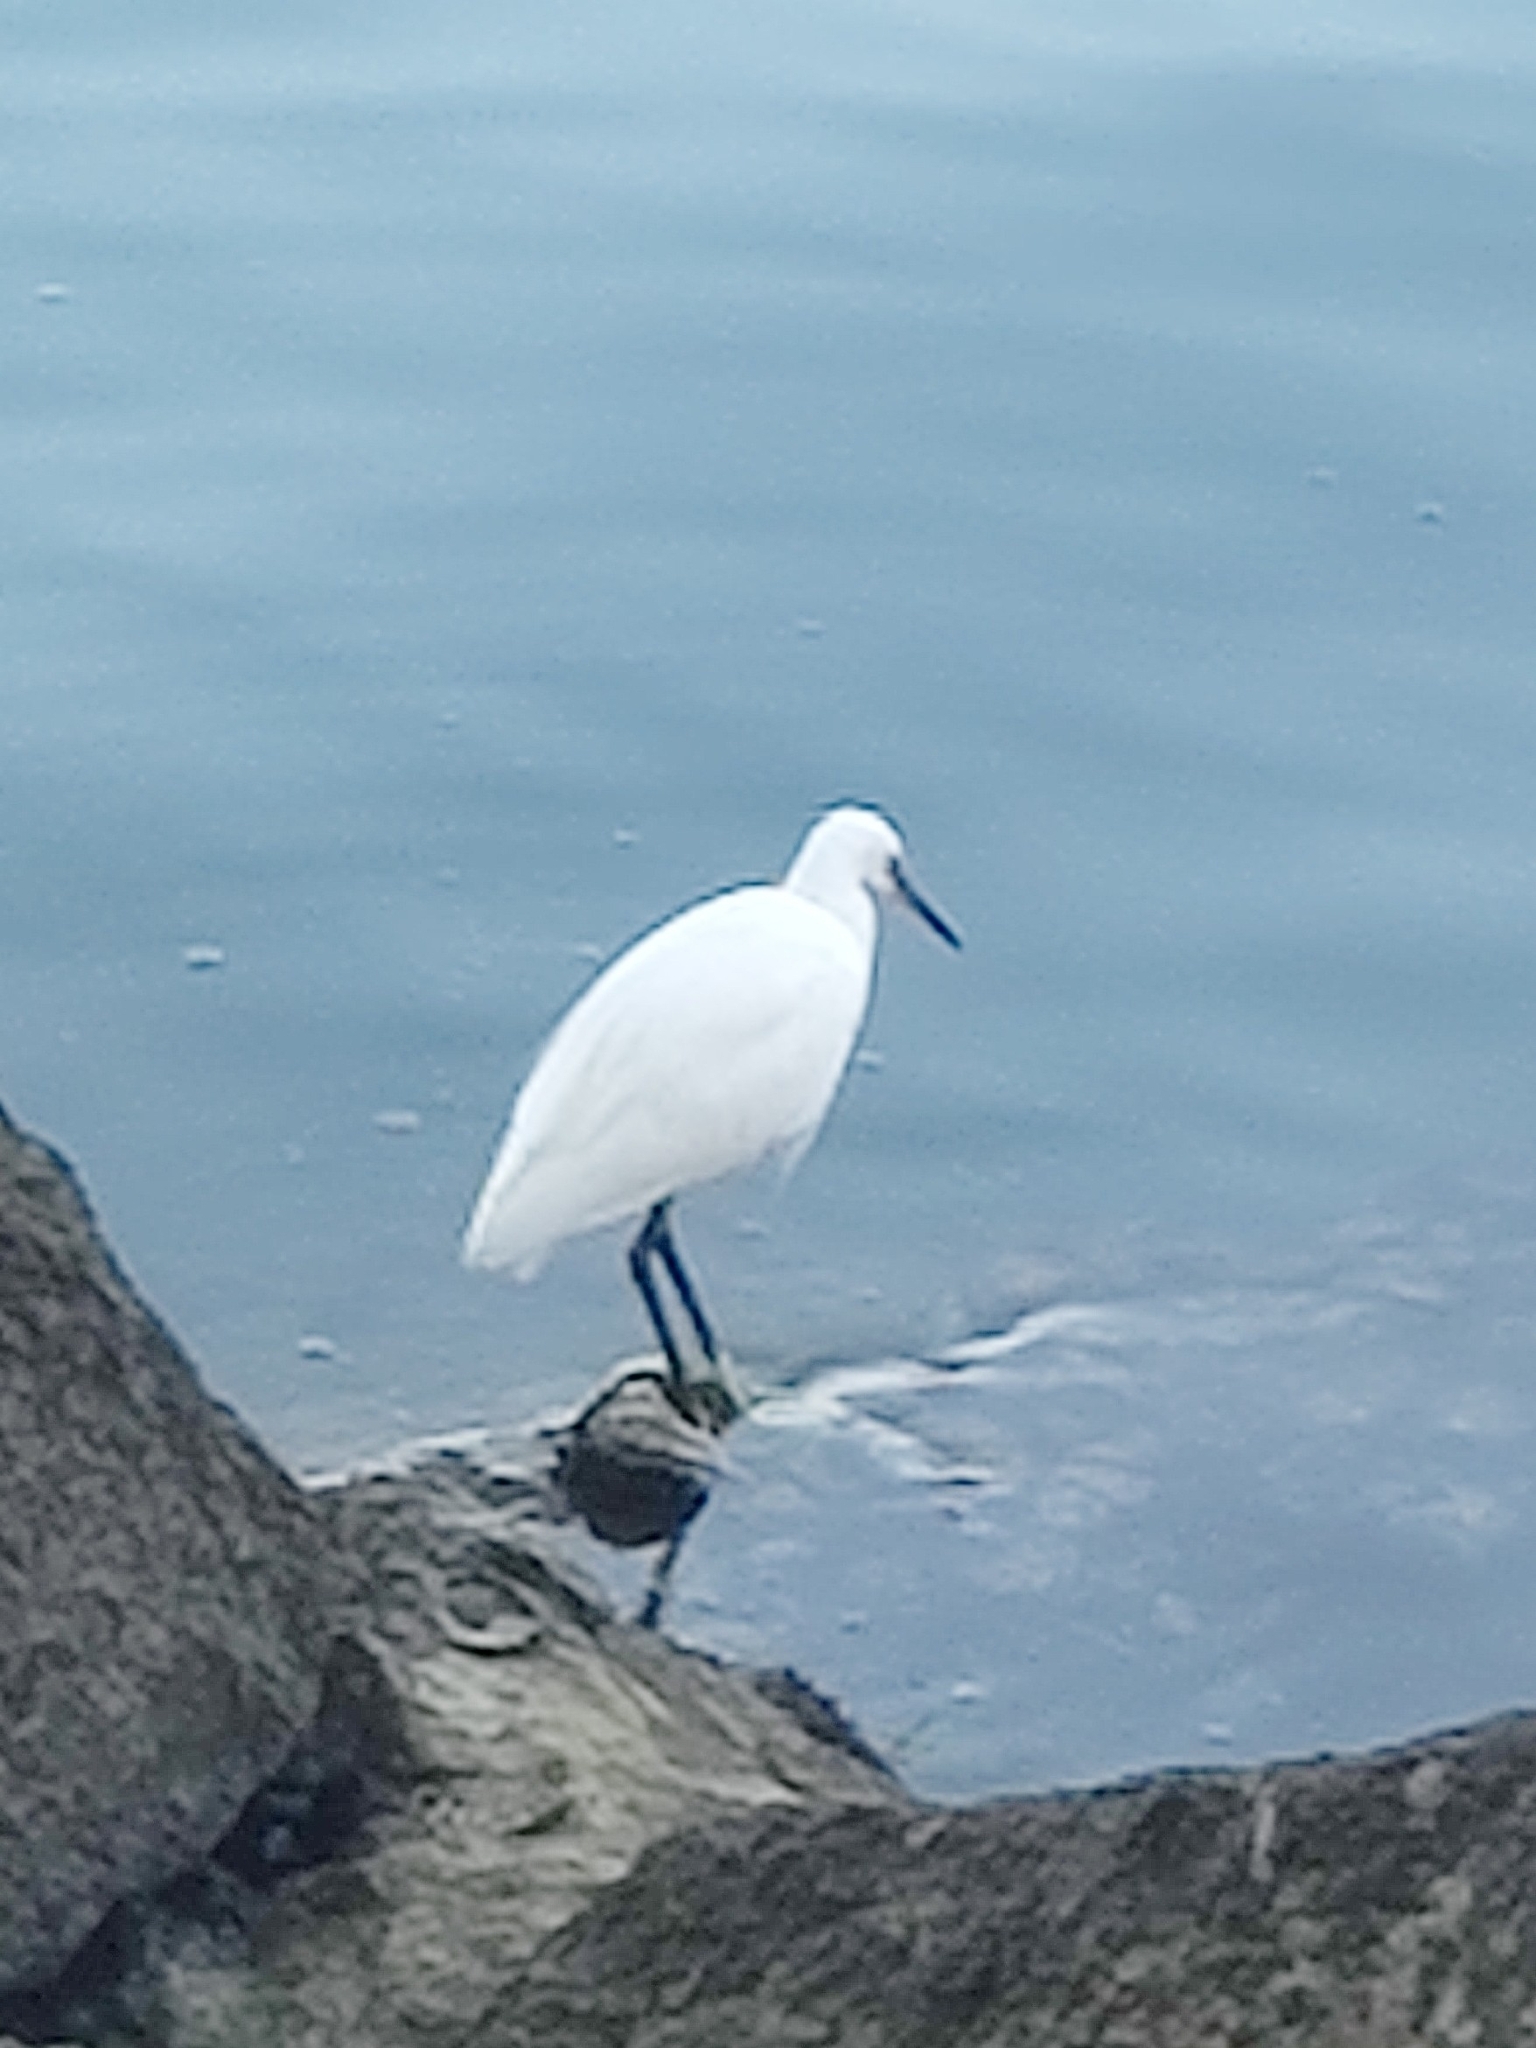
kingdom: Animalia
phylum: Chordata
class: Aves
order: Pelecaniformes
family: Ardeidae
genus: Egretta
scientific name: Egretta garzetta
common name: Little egret
